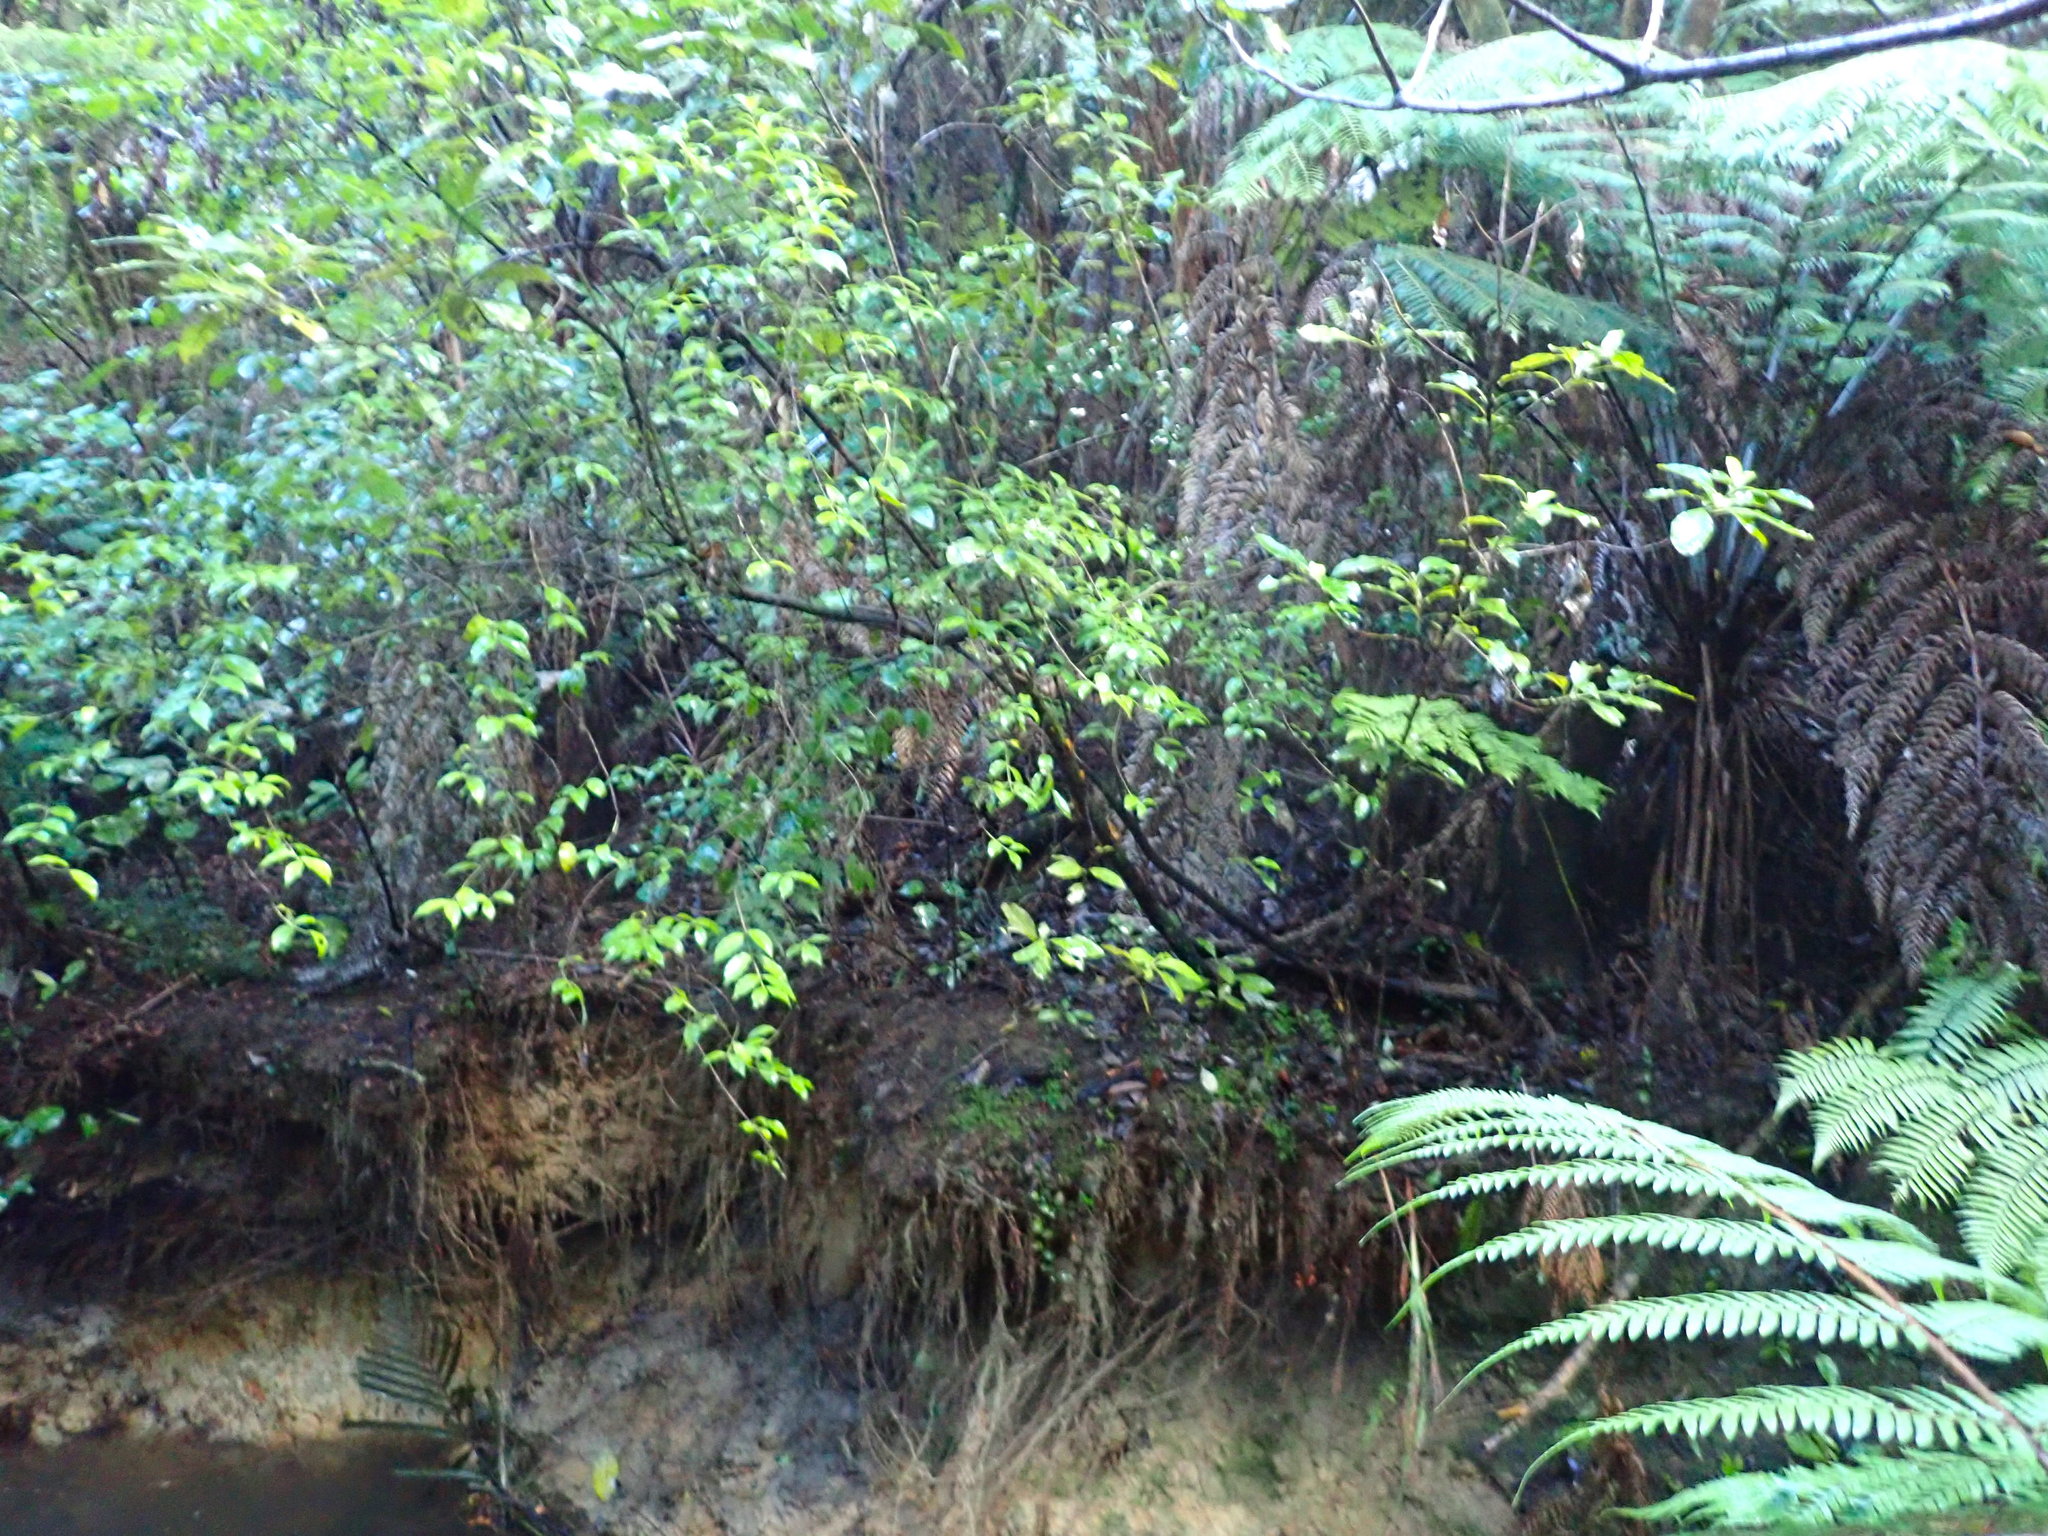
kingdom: Plantae
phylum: Tracheophyta
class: Magnoliopsida
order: Gentianales
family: Loganiaceae
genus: Geniostoma
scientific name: Geniostoma ligustrifolium
